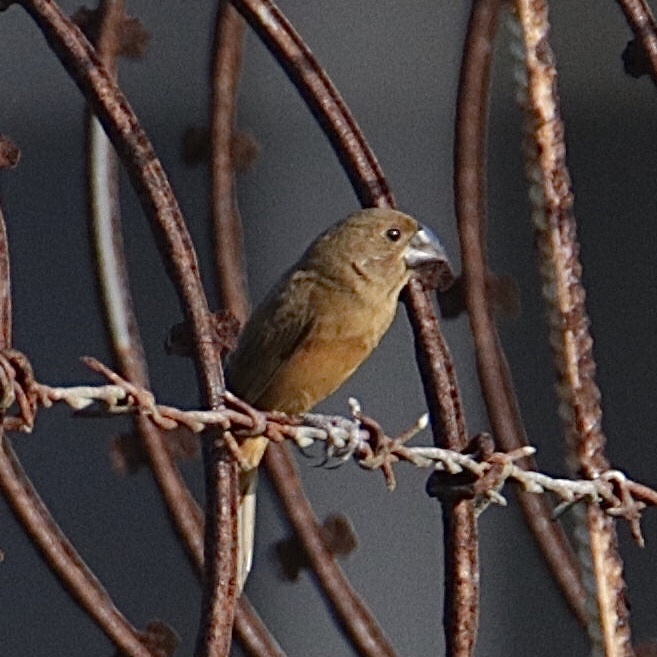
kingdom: Animalia
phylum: Chordata
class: Aves
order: Passeriformes
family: Thraupidae
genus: Sporophila
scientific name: Sporophila funerea
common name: Thick-billed seed-finch
